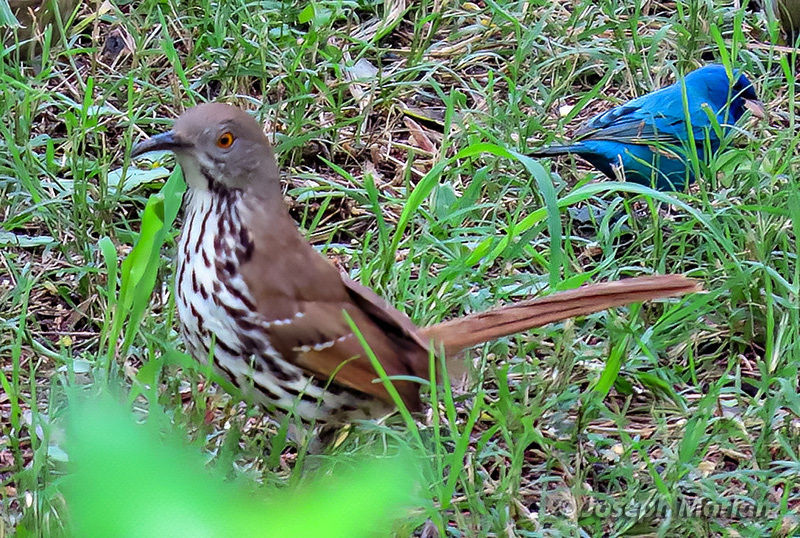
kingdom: Animalia
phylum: Chordata
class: Aves
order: Passeriformes
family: Mimidae
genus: Toxostoma
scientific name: Toxostoma longirostre
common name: Long-billed thrasher
